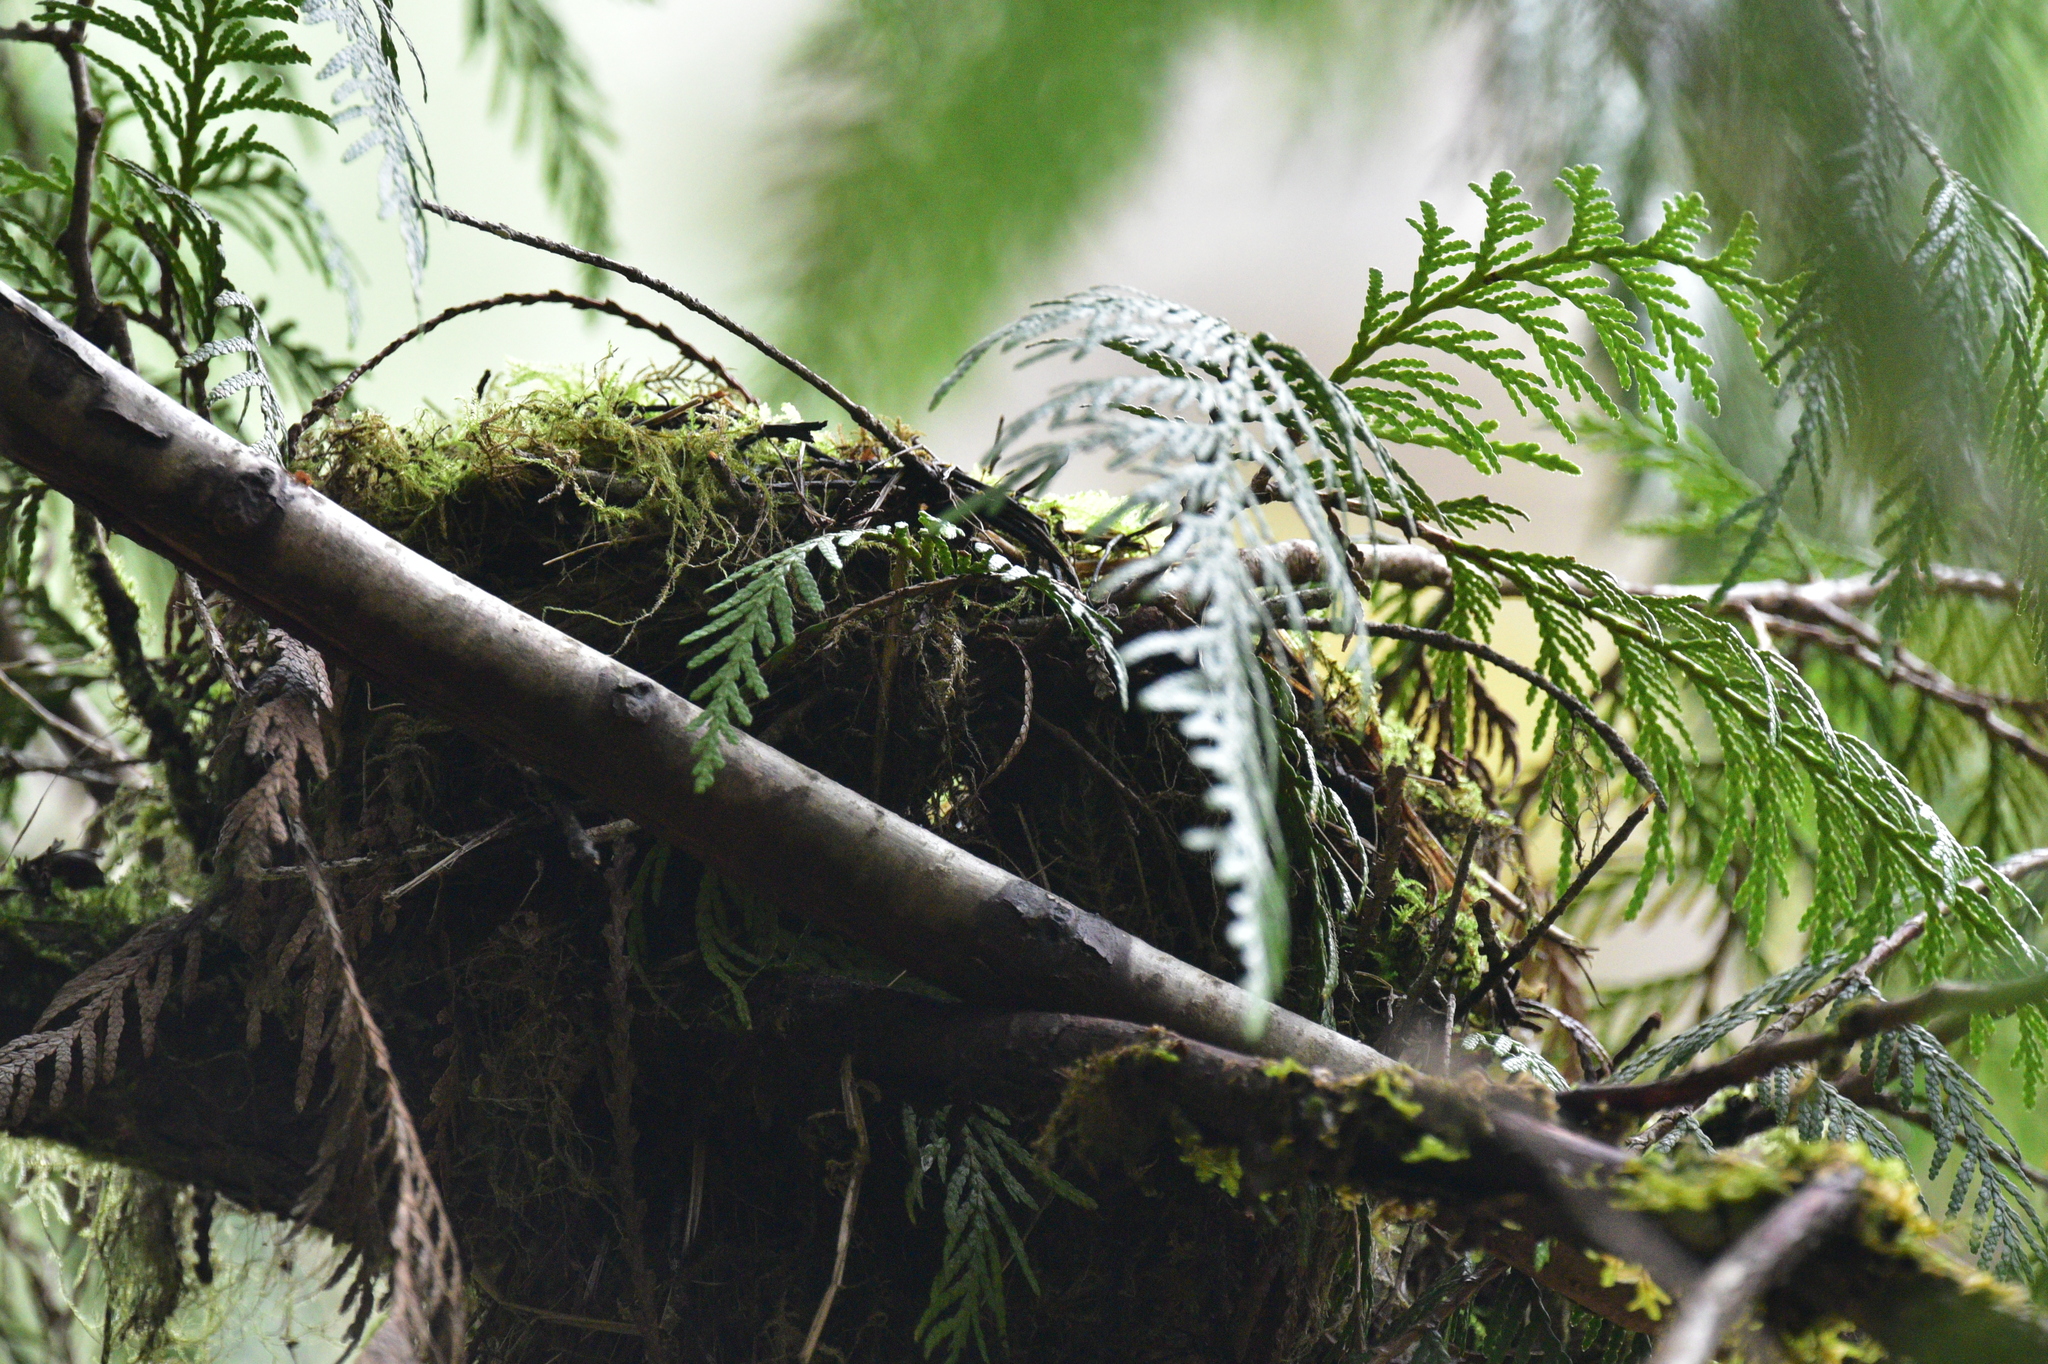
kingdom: Plantae
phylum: Tracheophyta
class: Pinopsida
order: Pinales
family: Cupressaceae
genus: Thuja
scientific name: Thuja plicata
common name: Western red-cedar
